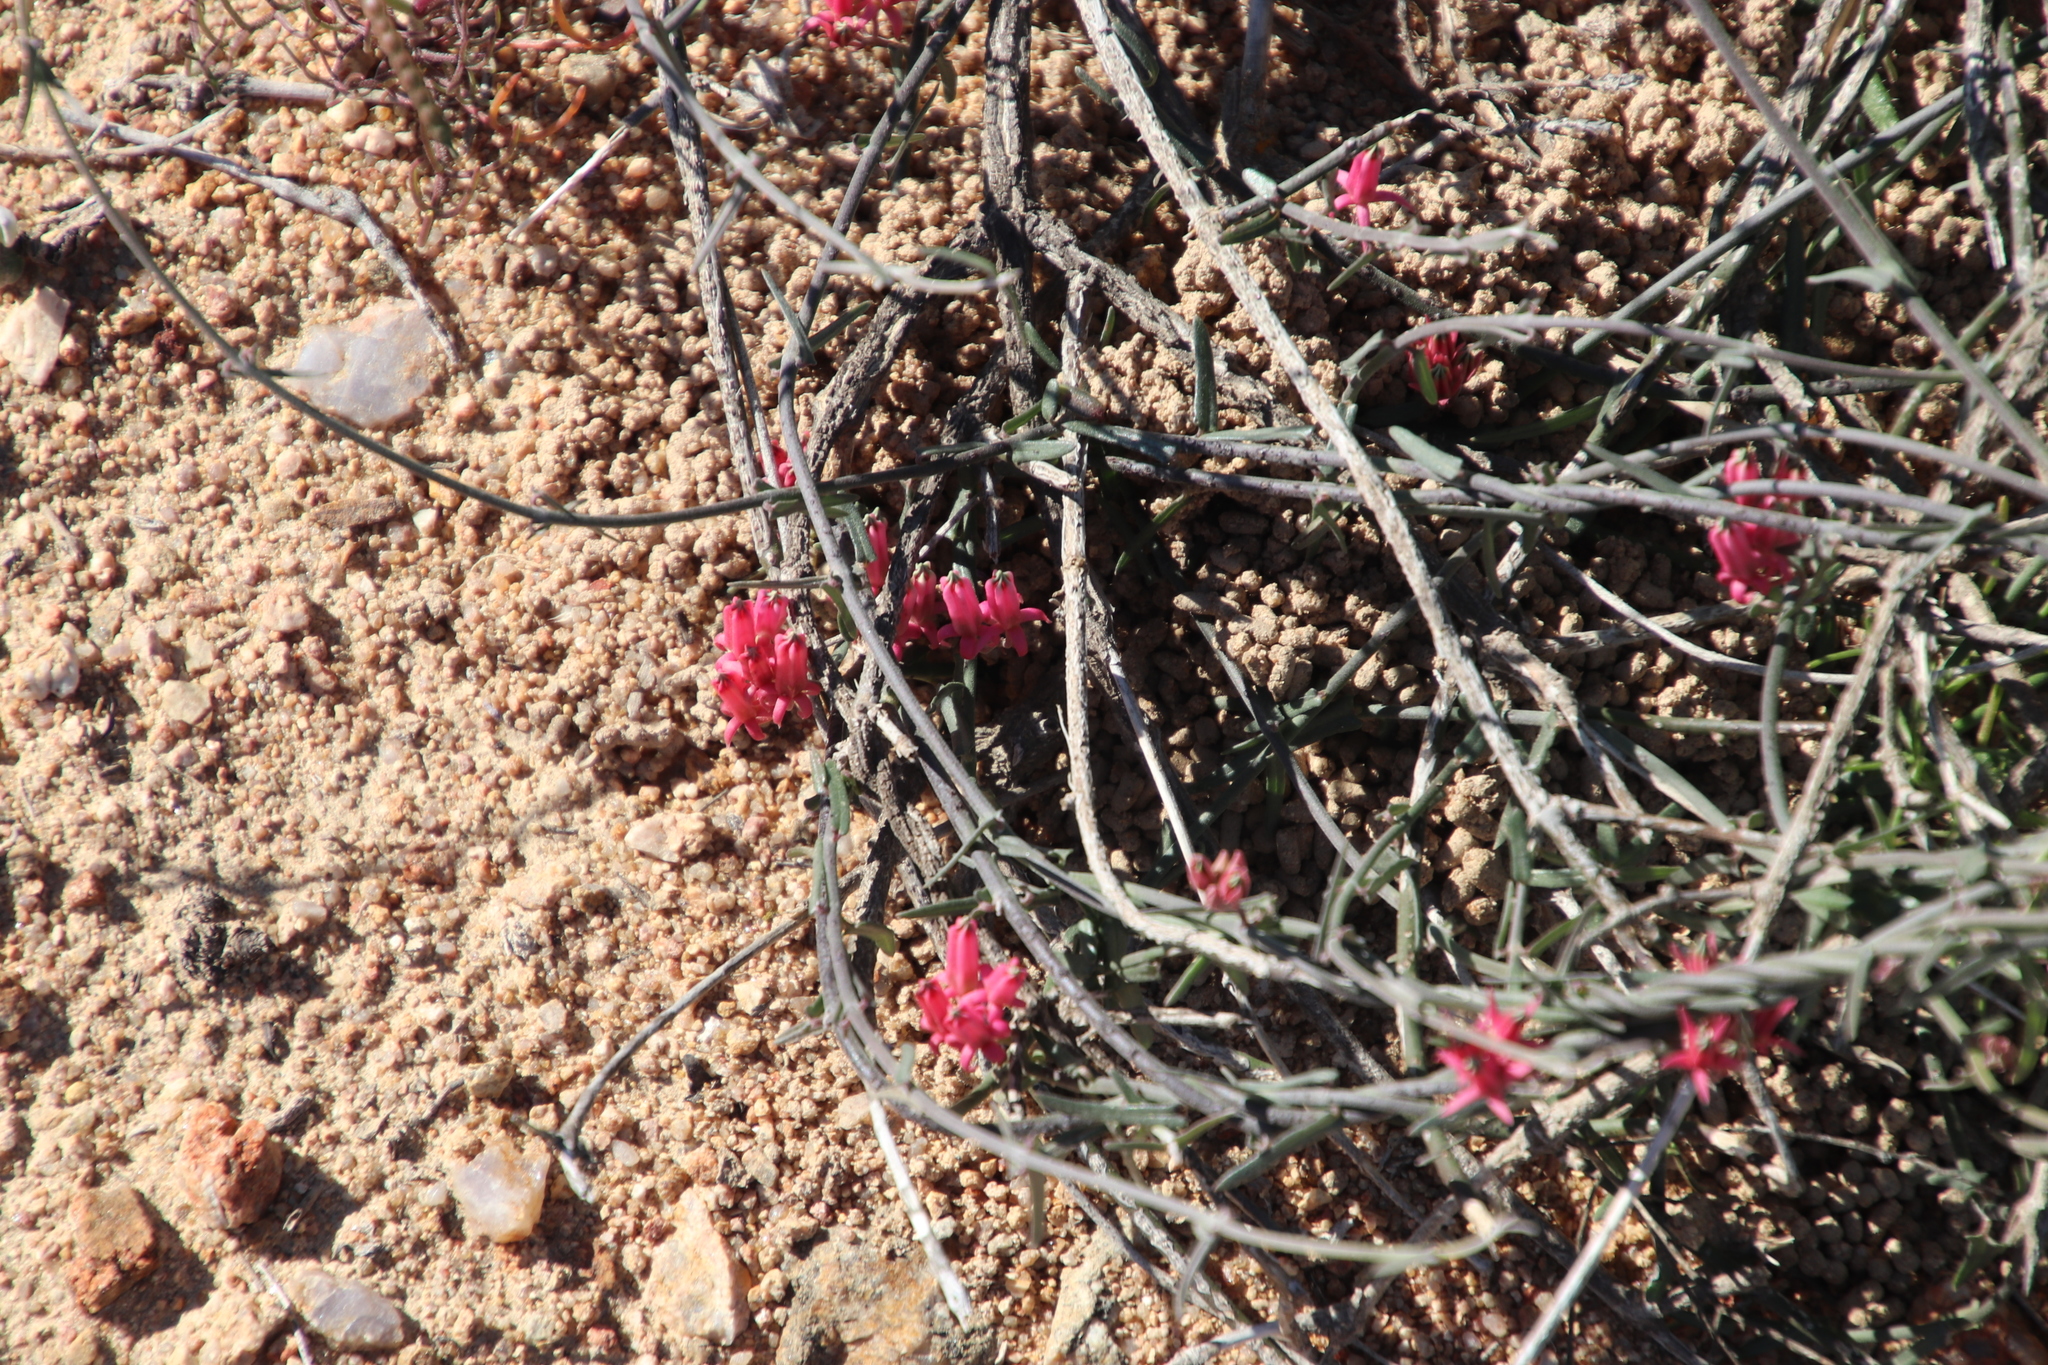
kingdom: Plantae
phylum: Tracheophyta
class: Magnoliopsida
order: Gentianales
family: Apocynaceae
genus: Microloma
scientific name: Microloma sagittatum
